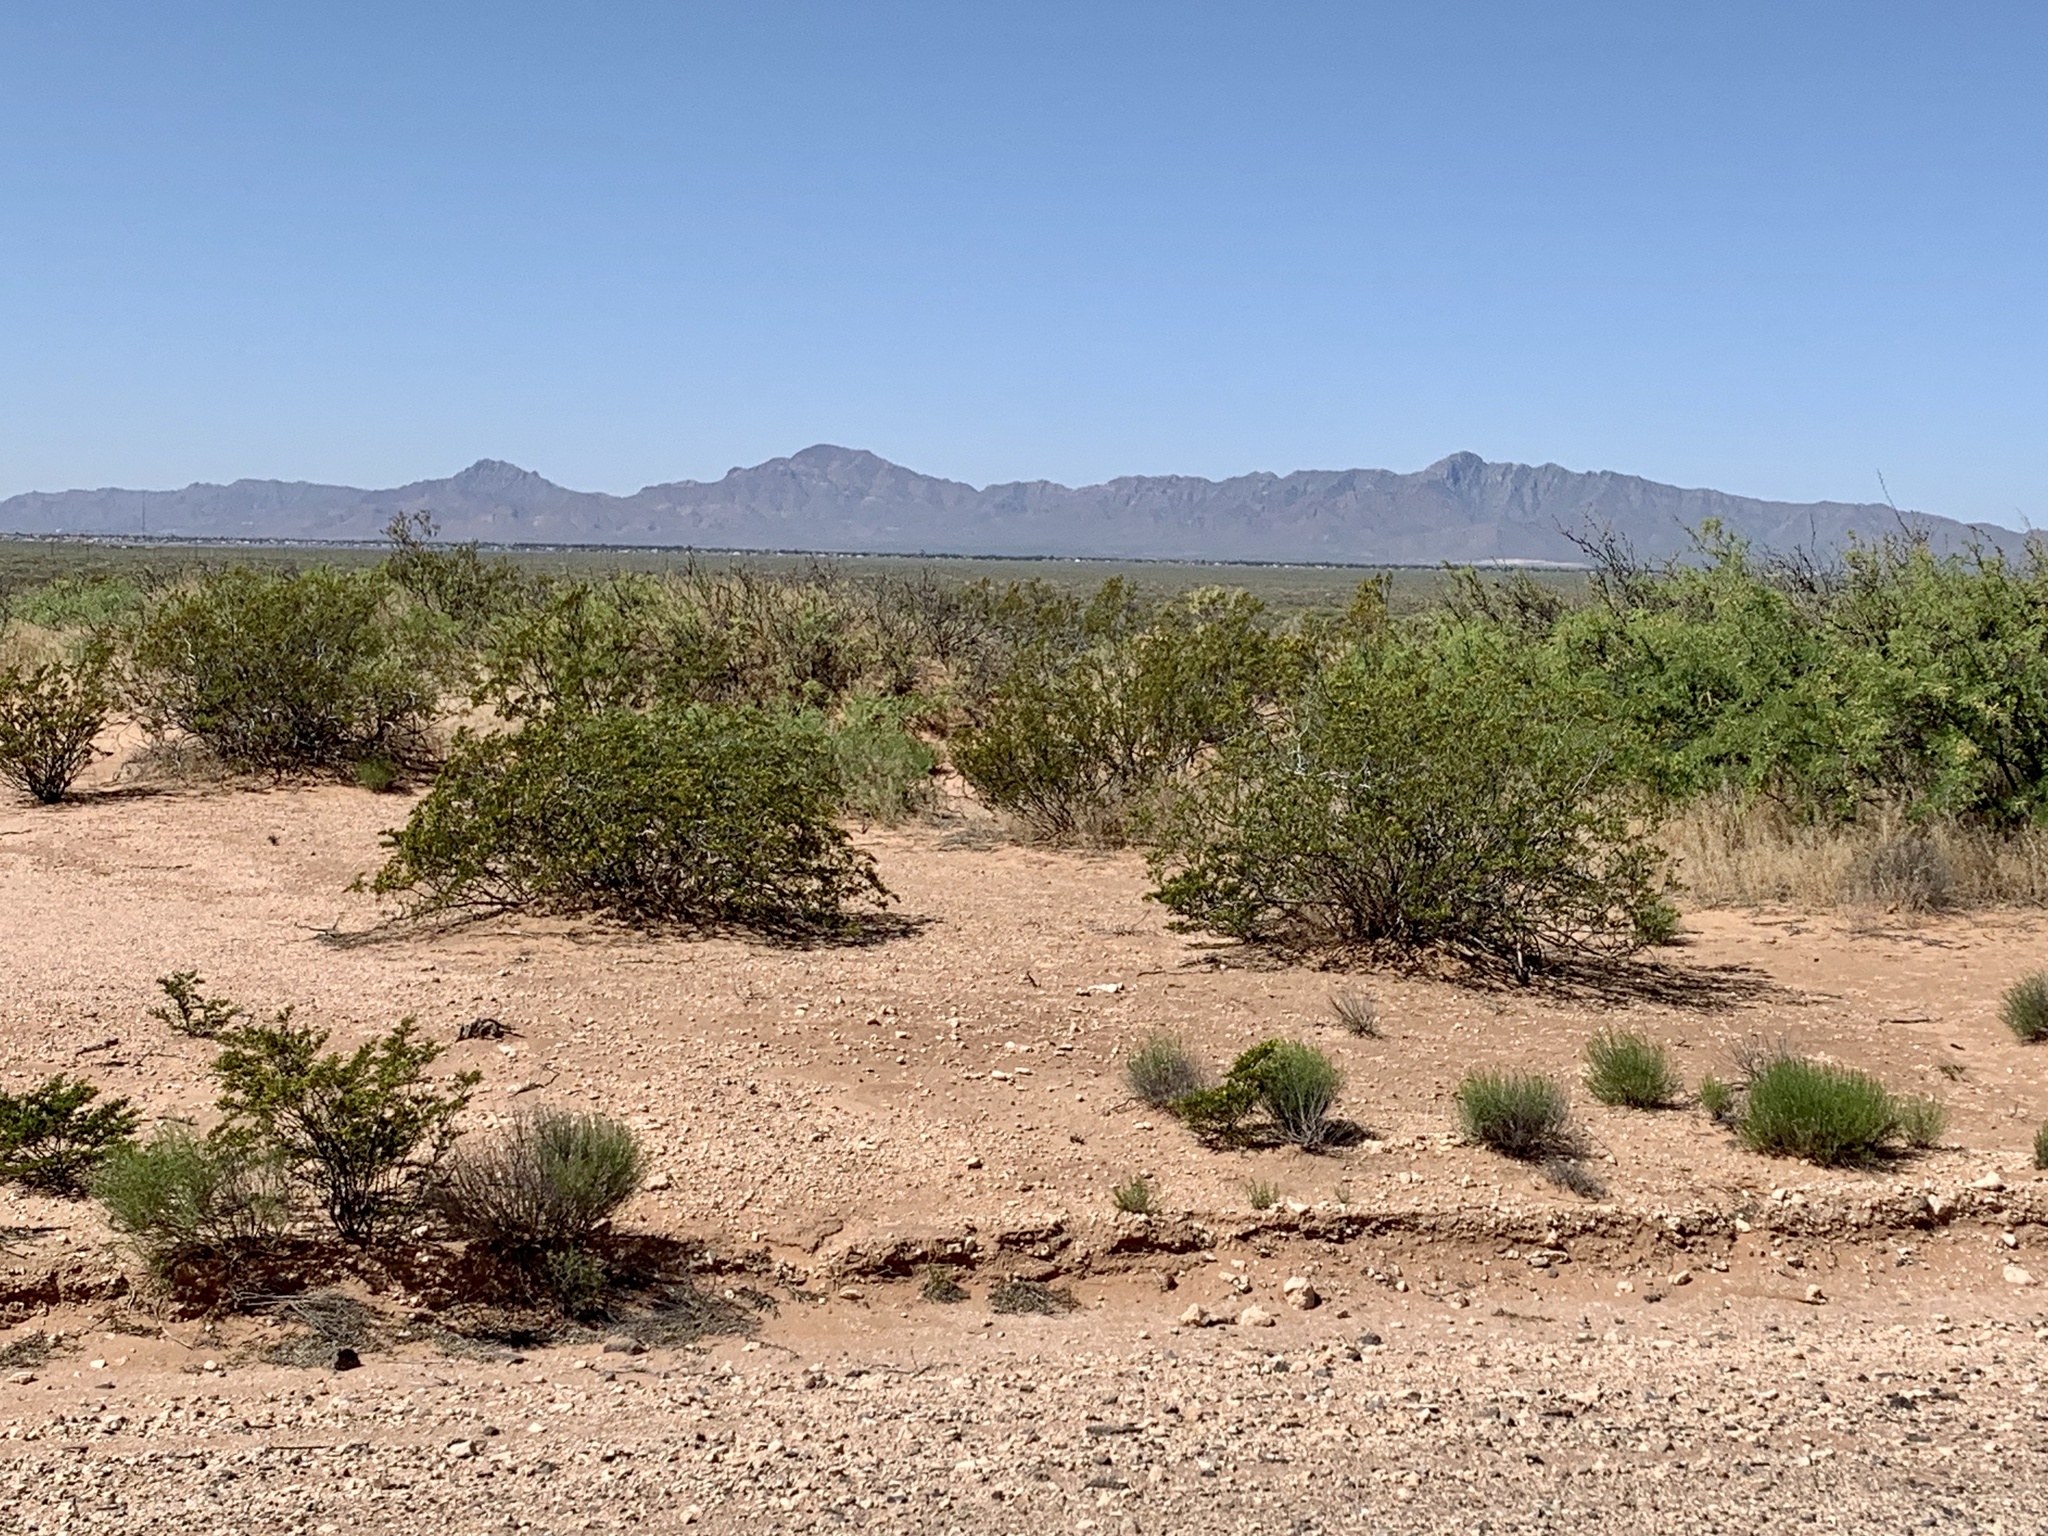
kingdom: Plantae
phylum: Tracheophyta
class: Magnoliopsida
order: Zygophyllales
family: Zygophyllaceae
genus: Larrea
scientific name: Larrea tridentata
